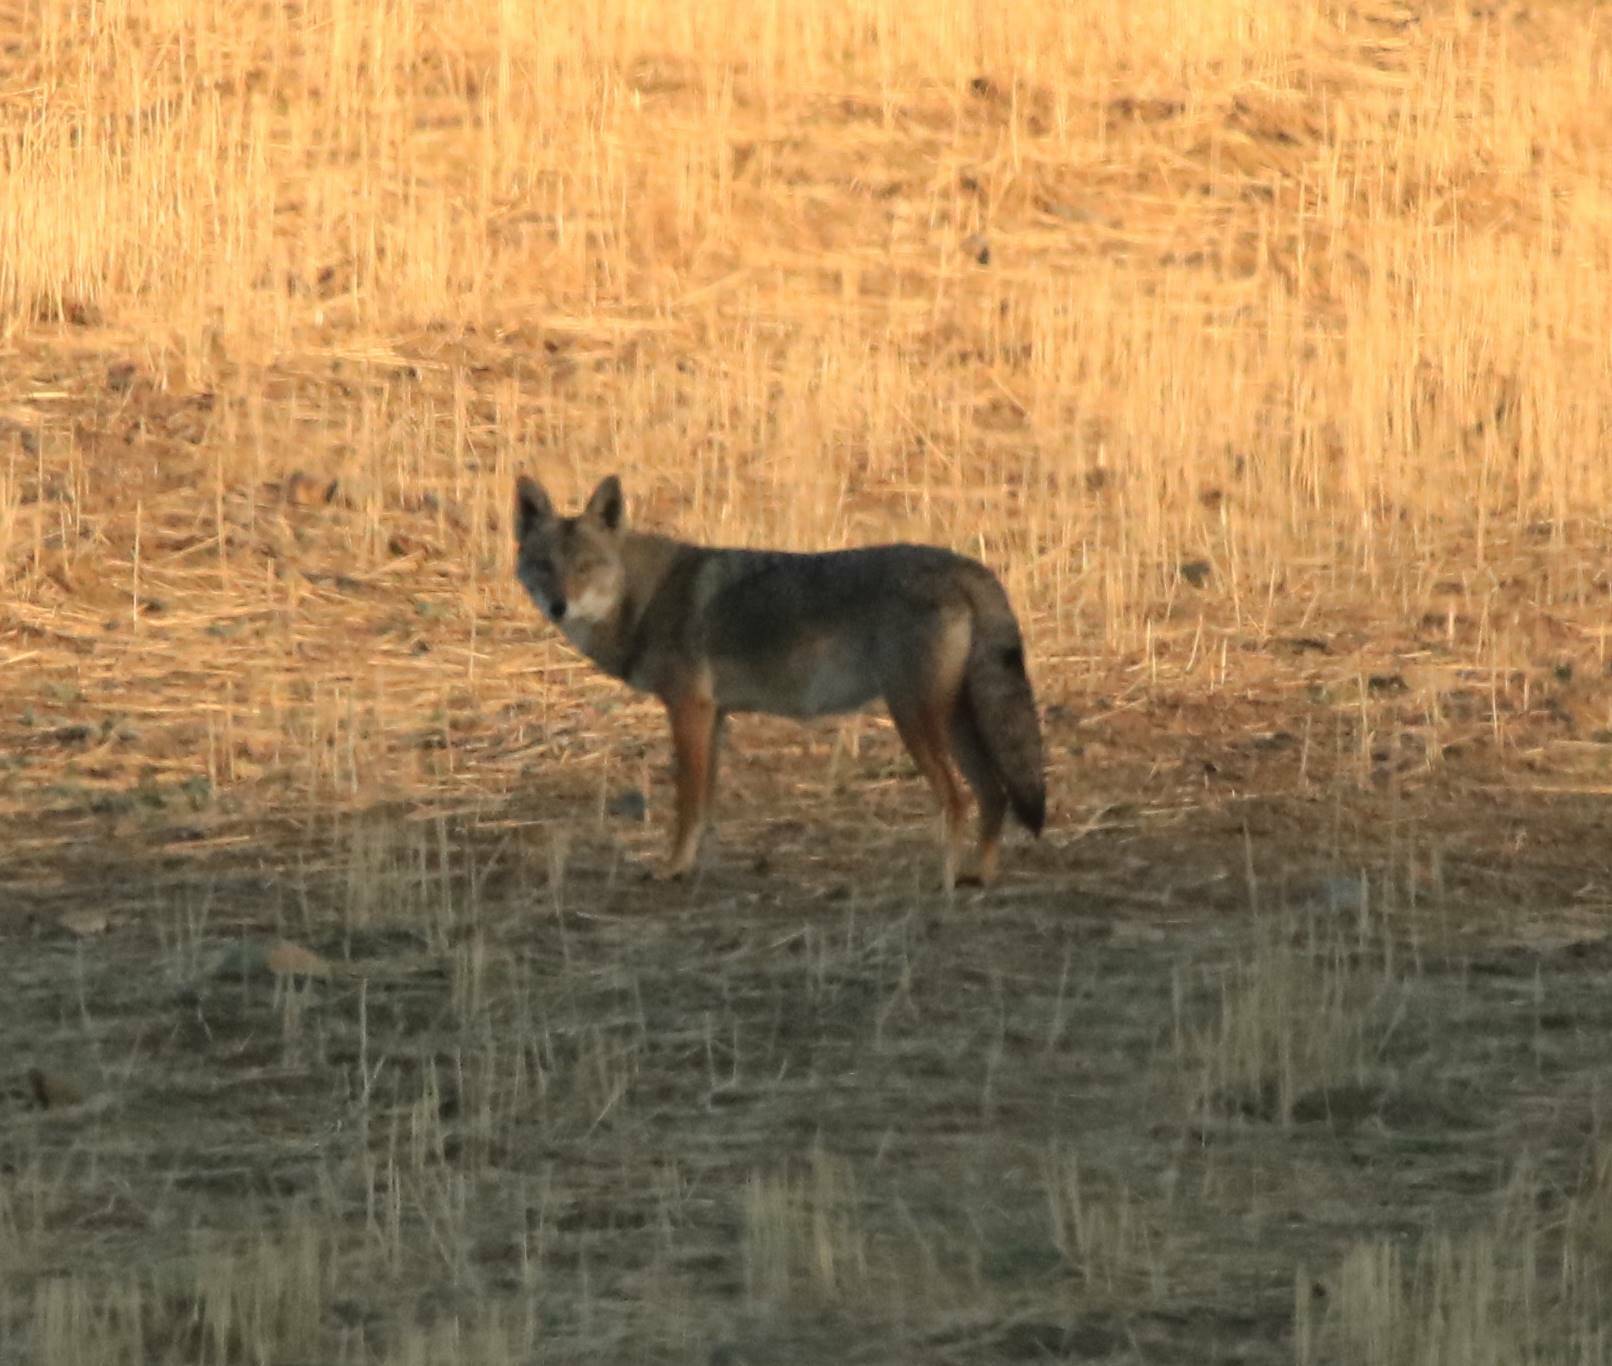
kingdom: Animalia
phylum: Chordata
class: Mammalia
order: Carnivora
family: Canidae
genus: Canis
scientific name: Canis lupaster
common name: African golden wolf
